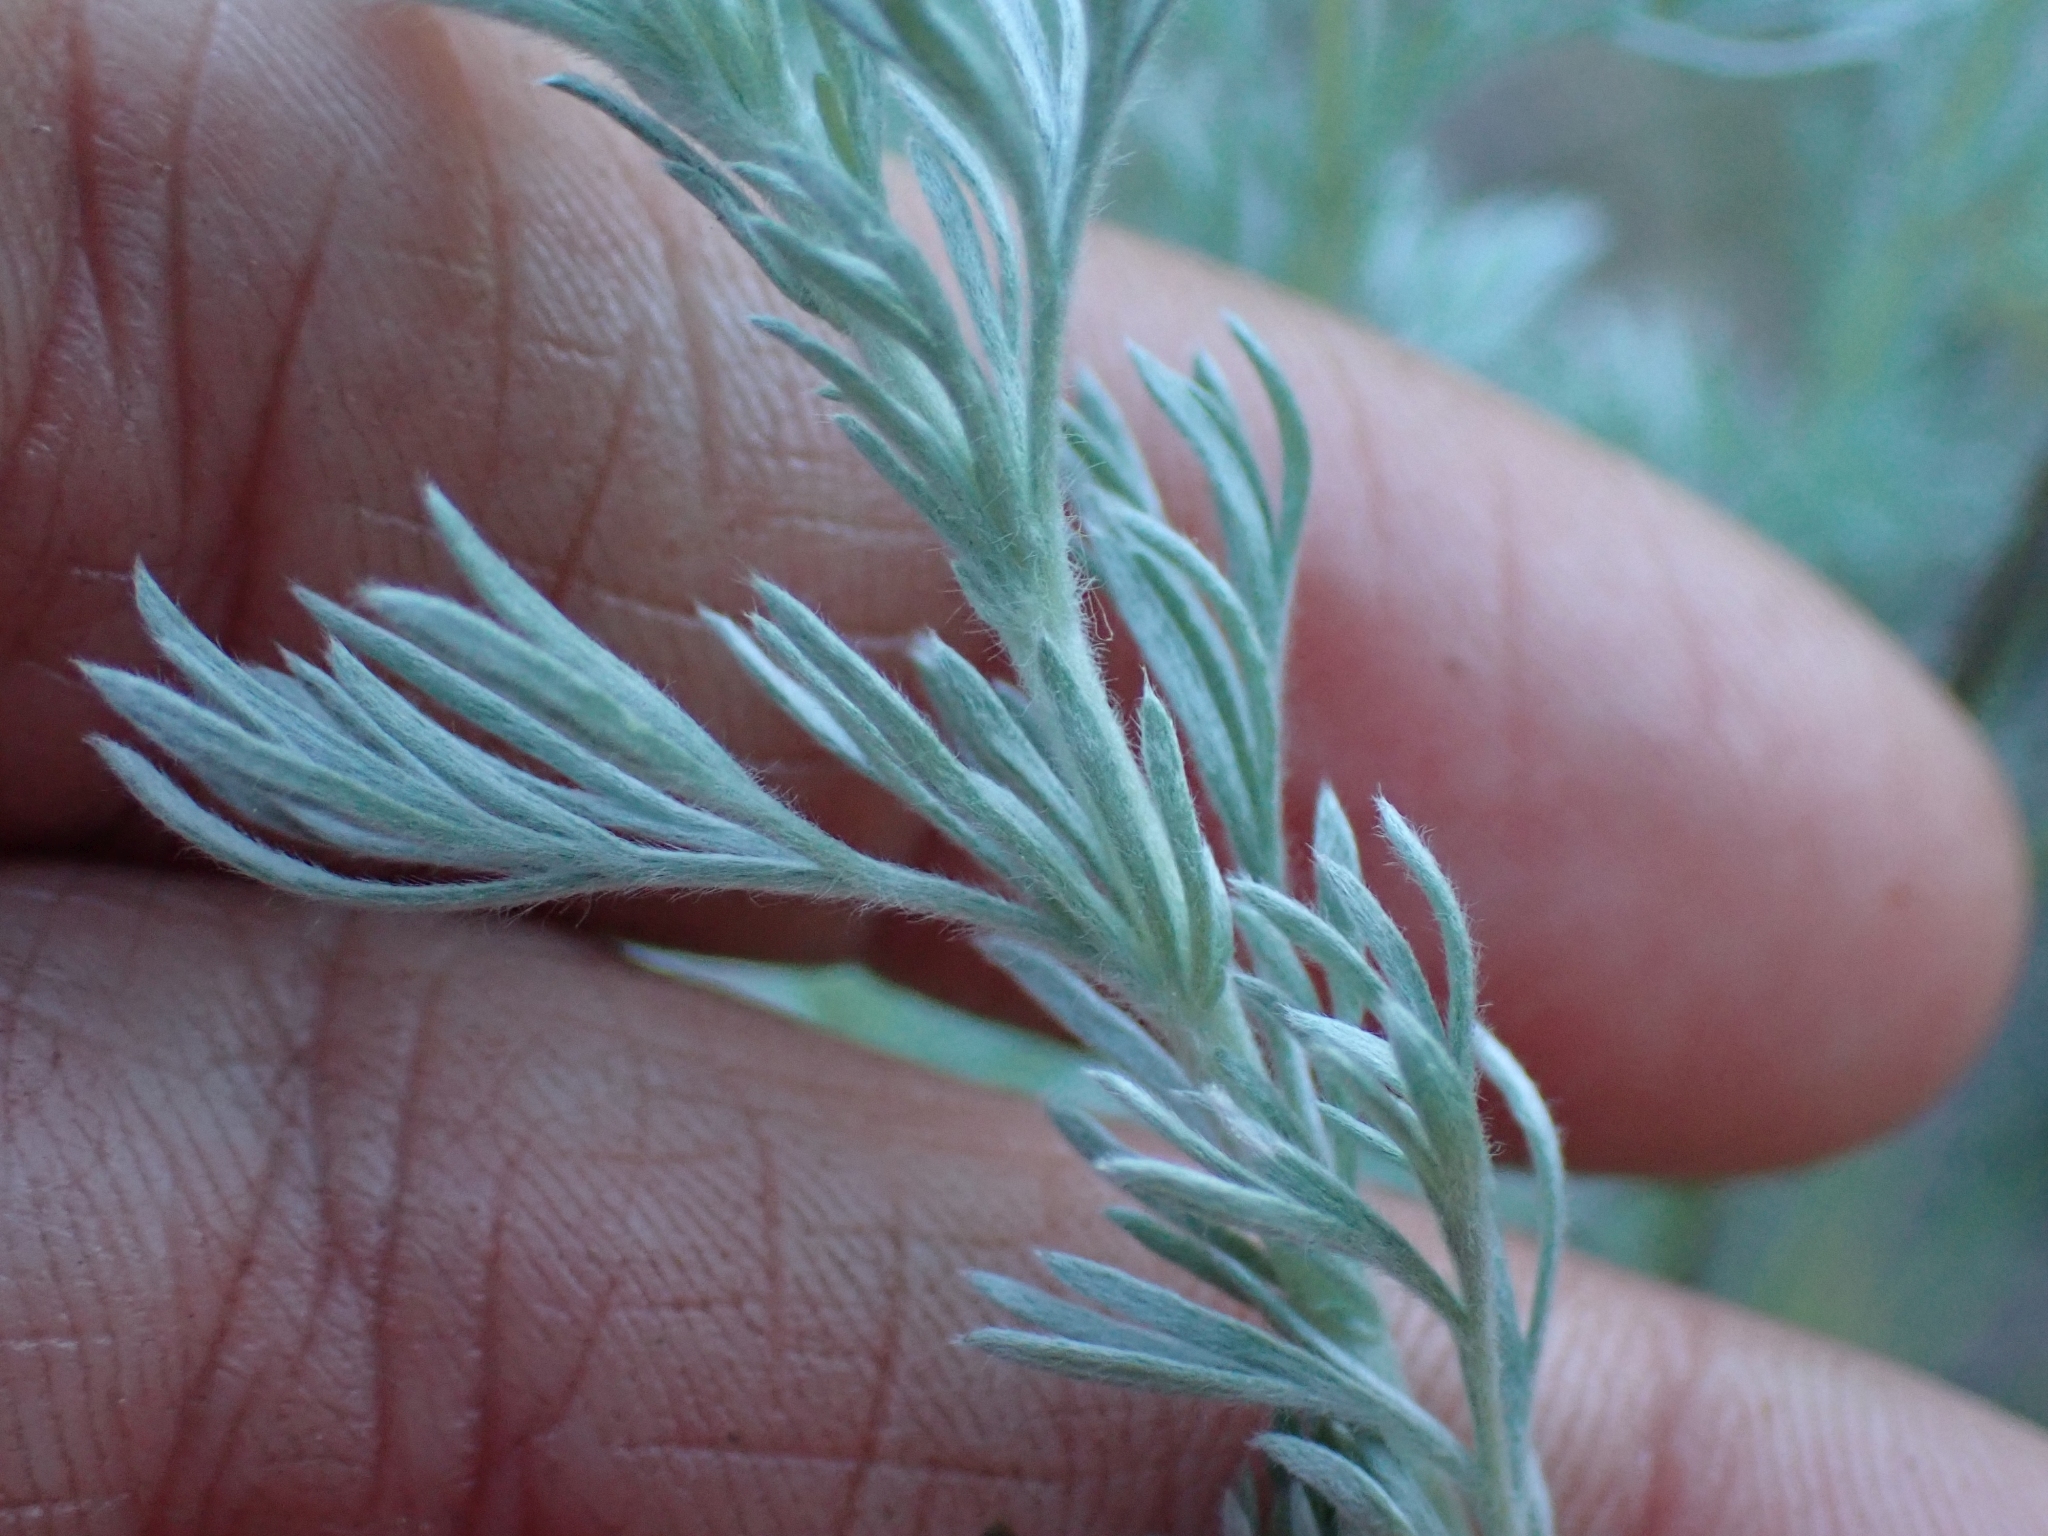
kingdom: Plantae
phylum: Tracheophyta
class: Magnoliopsida
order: Asterales
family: Asteraceae
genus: Artemisia
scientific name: Artemisia frigida
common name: Prairie sagewort
